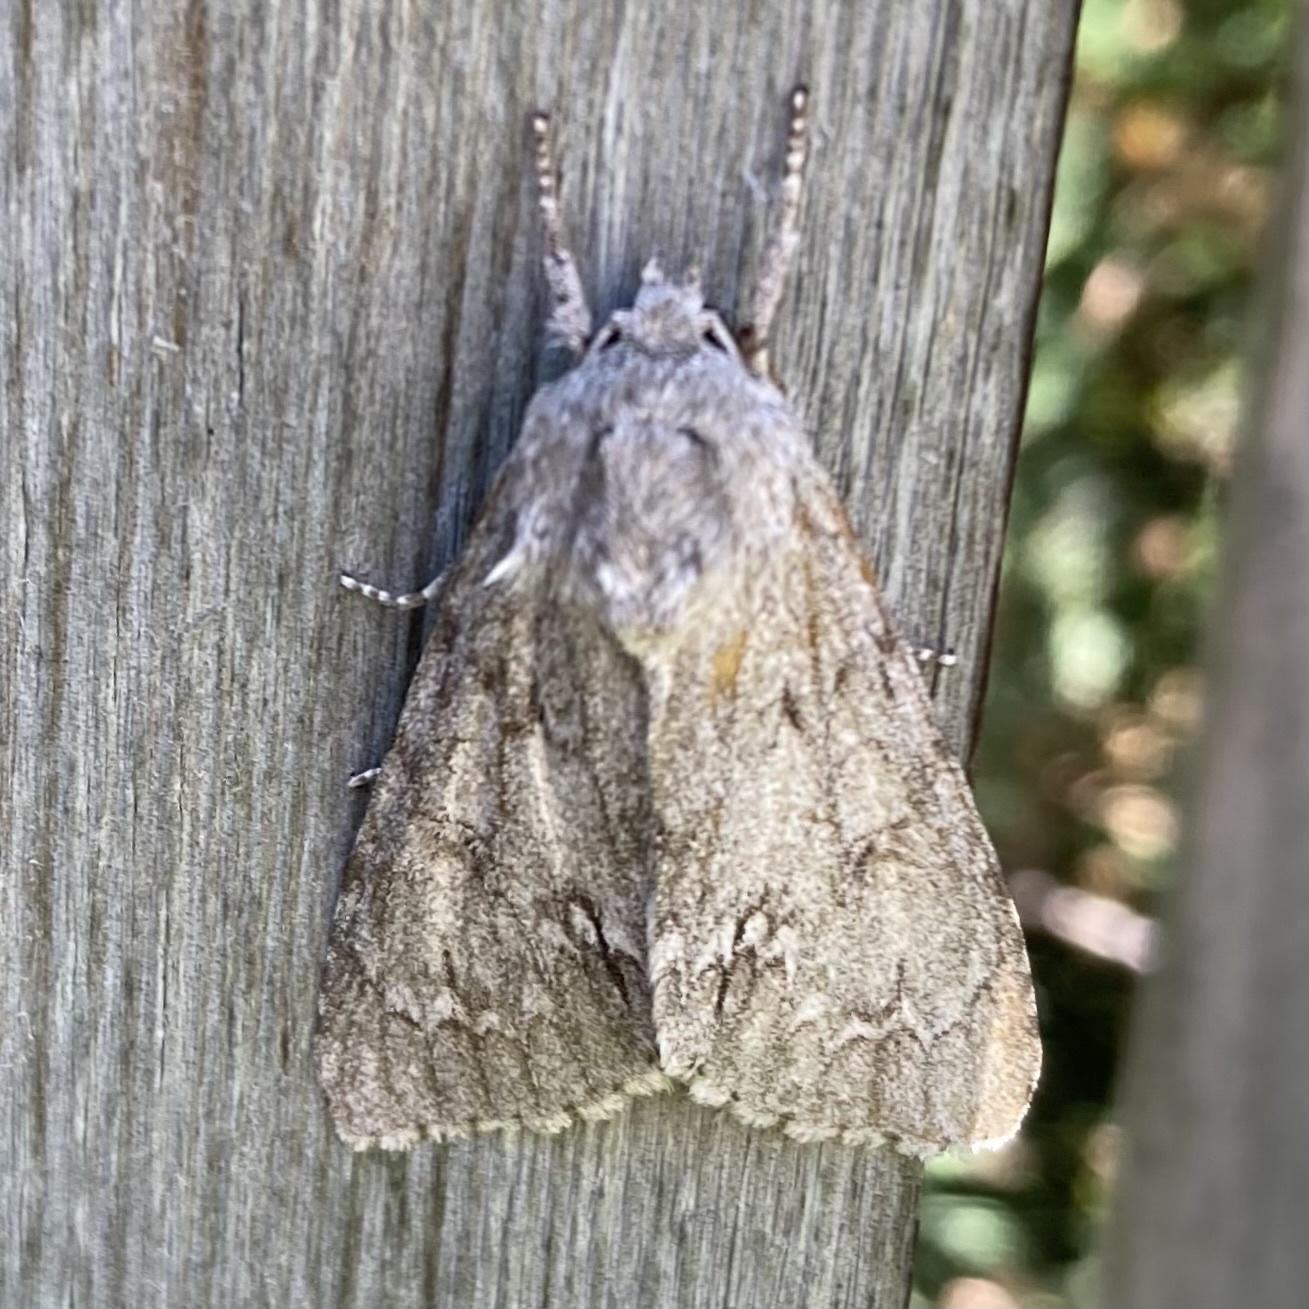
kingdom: Animalia
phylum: Arthropoda
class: Insecta
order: Lepidoptera
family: Noctuidae
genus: Acronicta
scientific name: Acronicta americana
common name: American dagger
